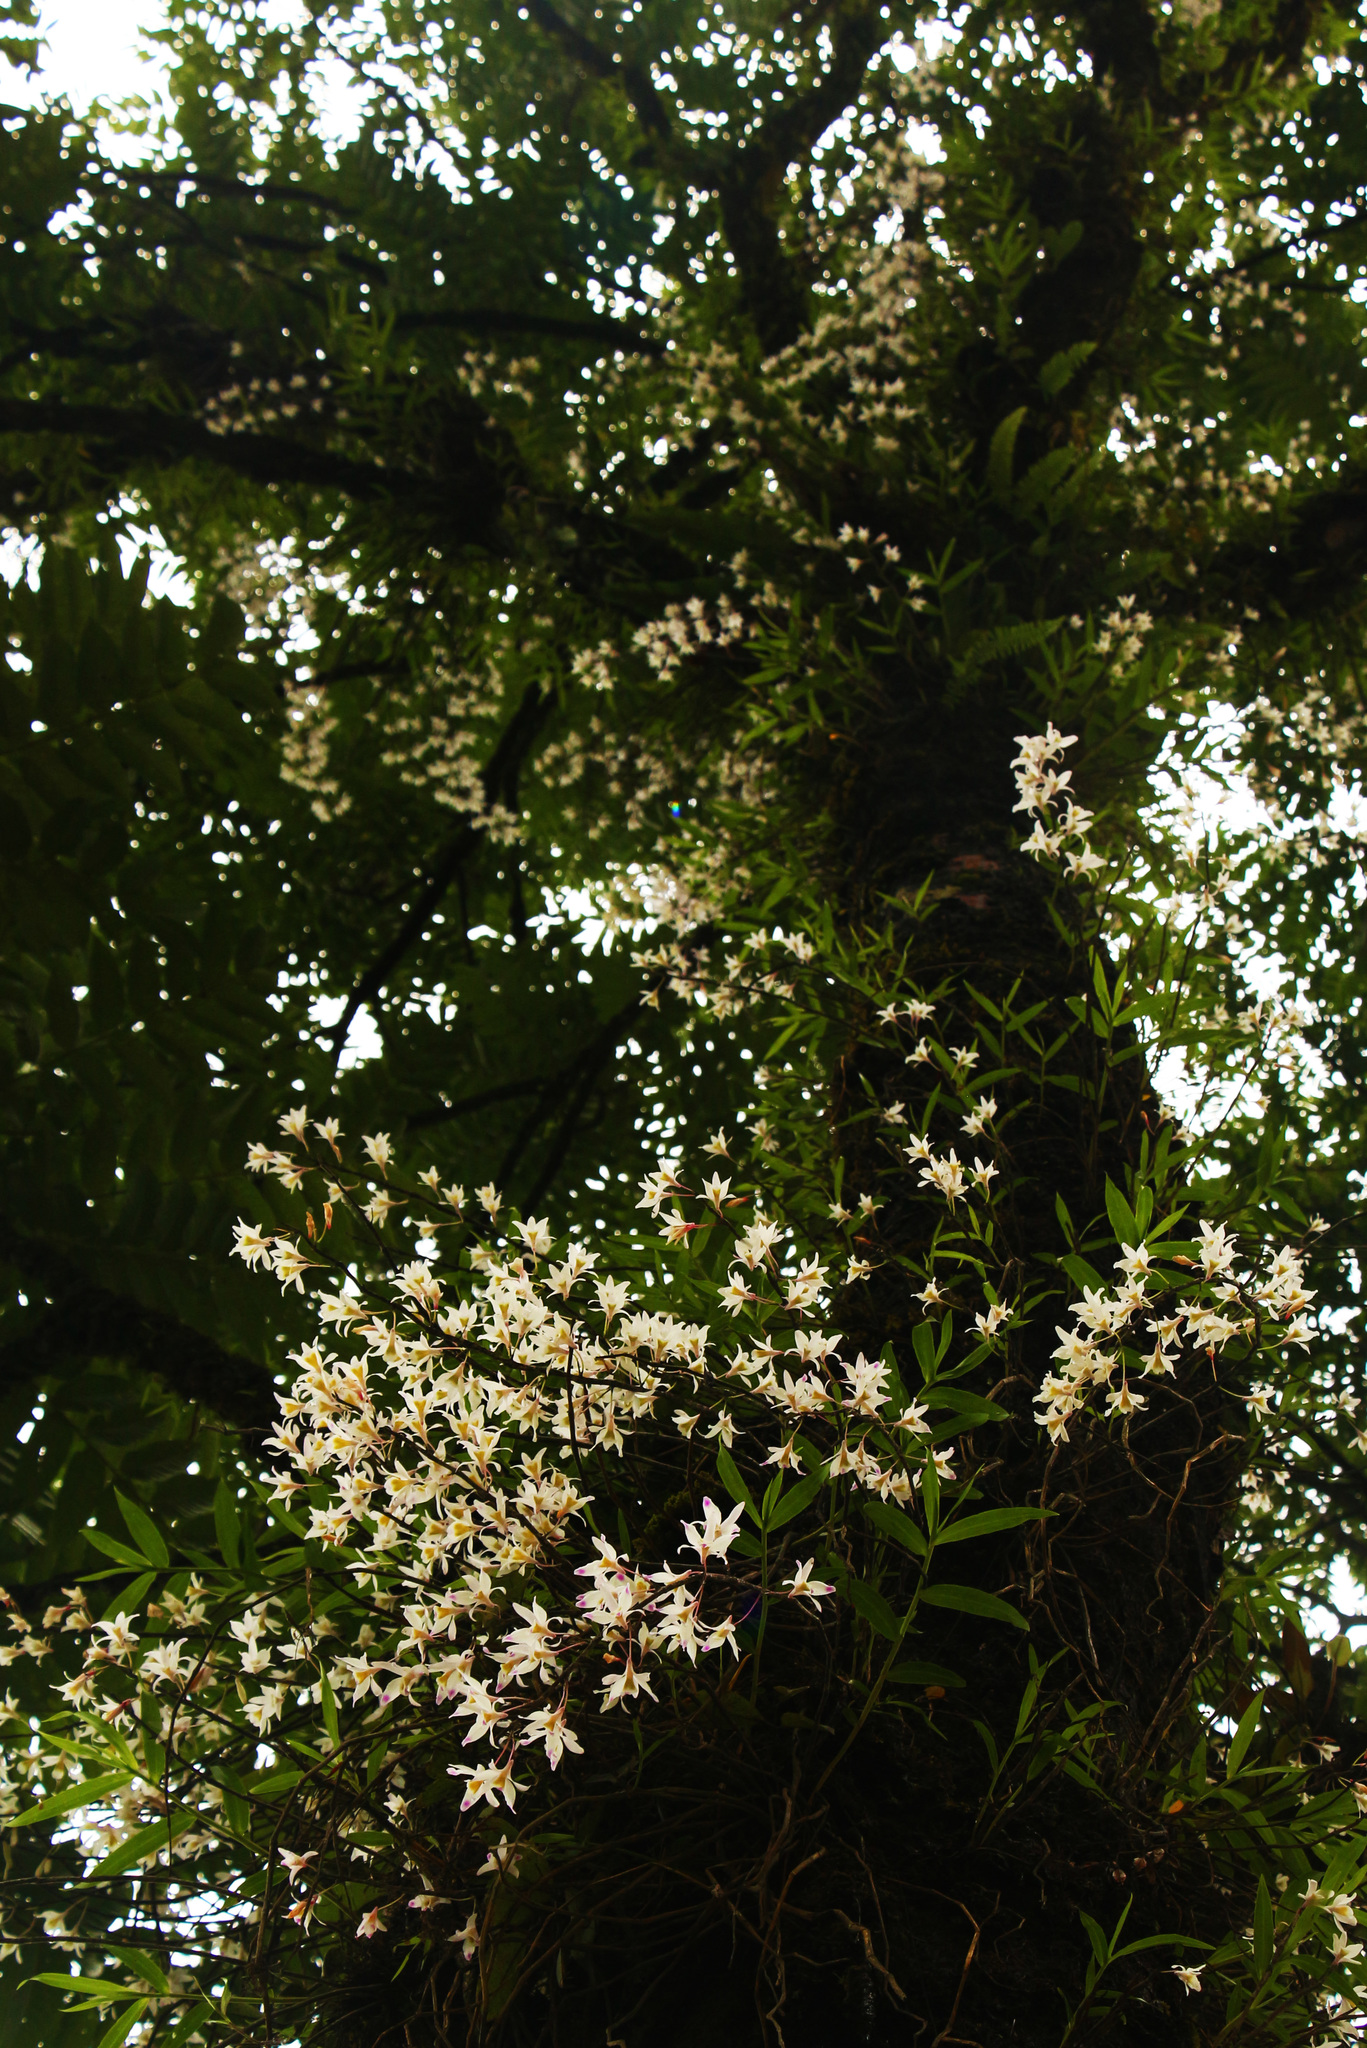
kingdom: Plantae
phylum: Tracheophyta
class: Liliopsida
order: Asparagales
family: Orchidaceae
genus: Dendrobium
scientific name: Dendrobium amoenum
